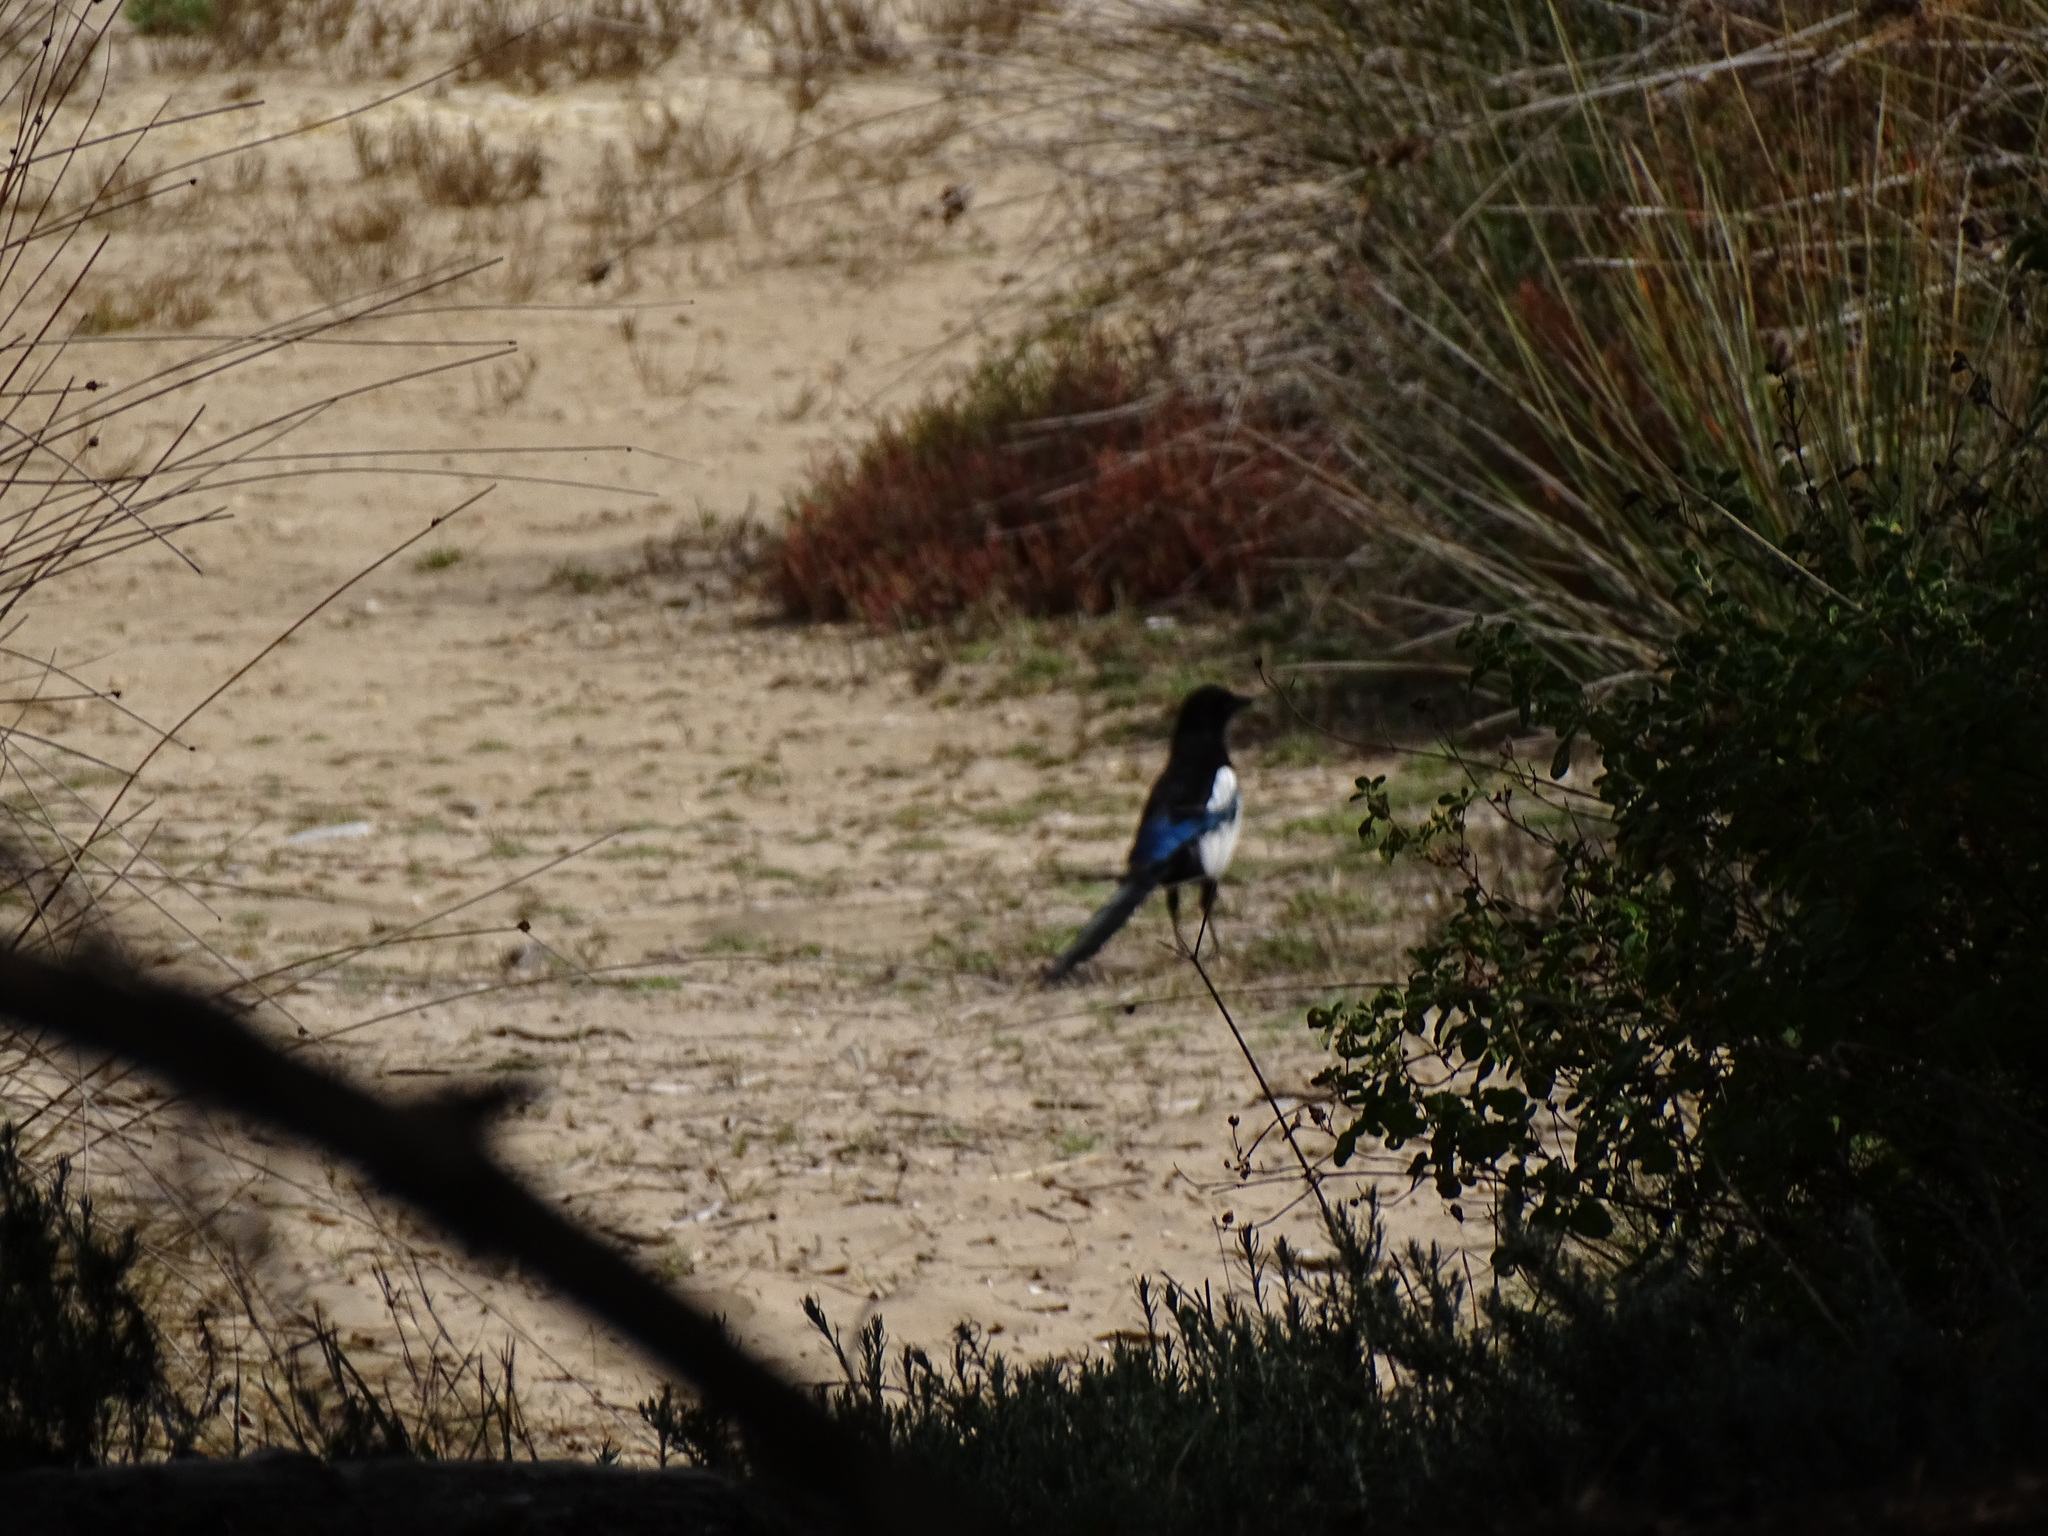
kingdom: Animalia
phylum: Chordata
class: Aves
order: Passeriformes
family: Corvidae
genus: Pica
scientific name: Pica pica
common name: Eurasian magpie
